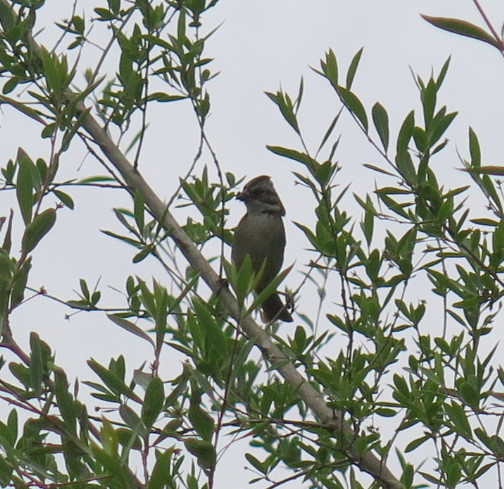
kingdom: Animalia
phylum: Chordata
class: Aves
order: Passeriformes
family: Passerellidae
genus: Zonotrichia
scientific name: Zonotrichia capensis
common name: Rufous-collared sparrow
